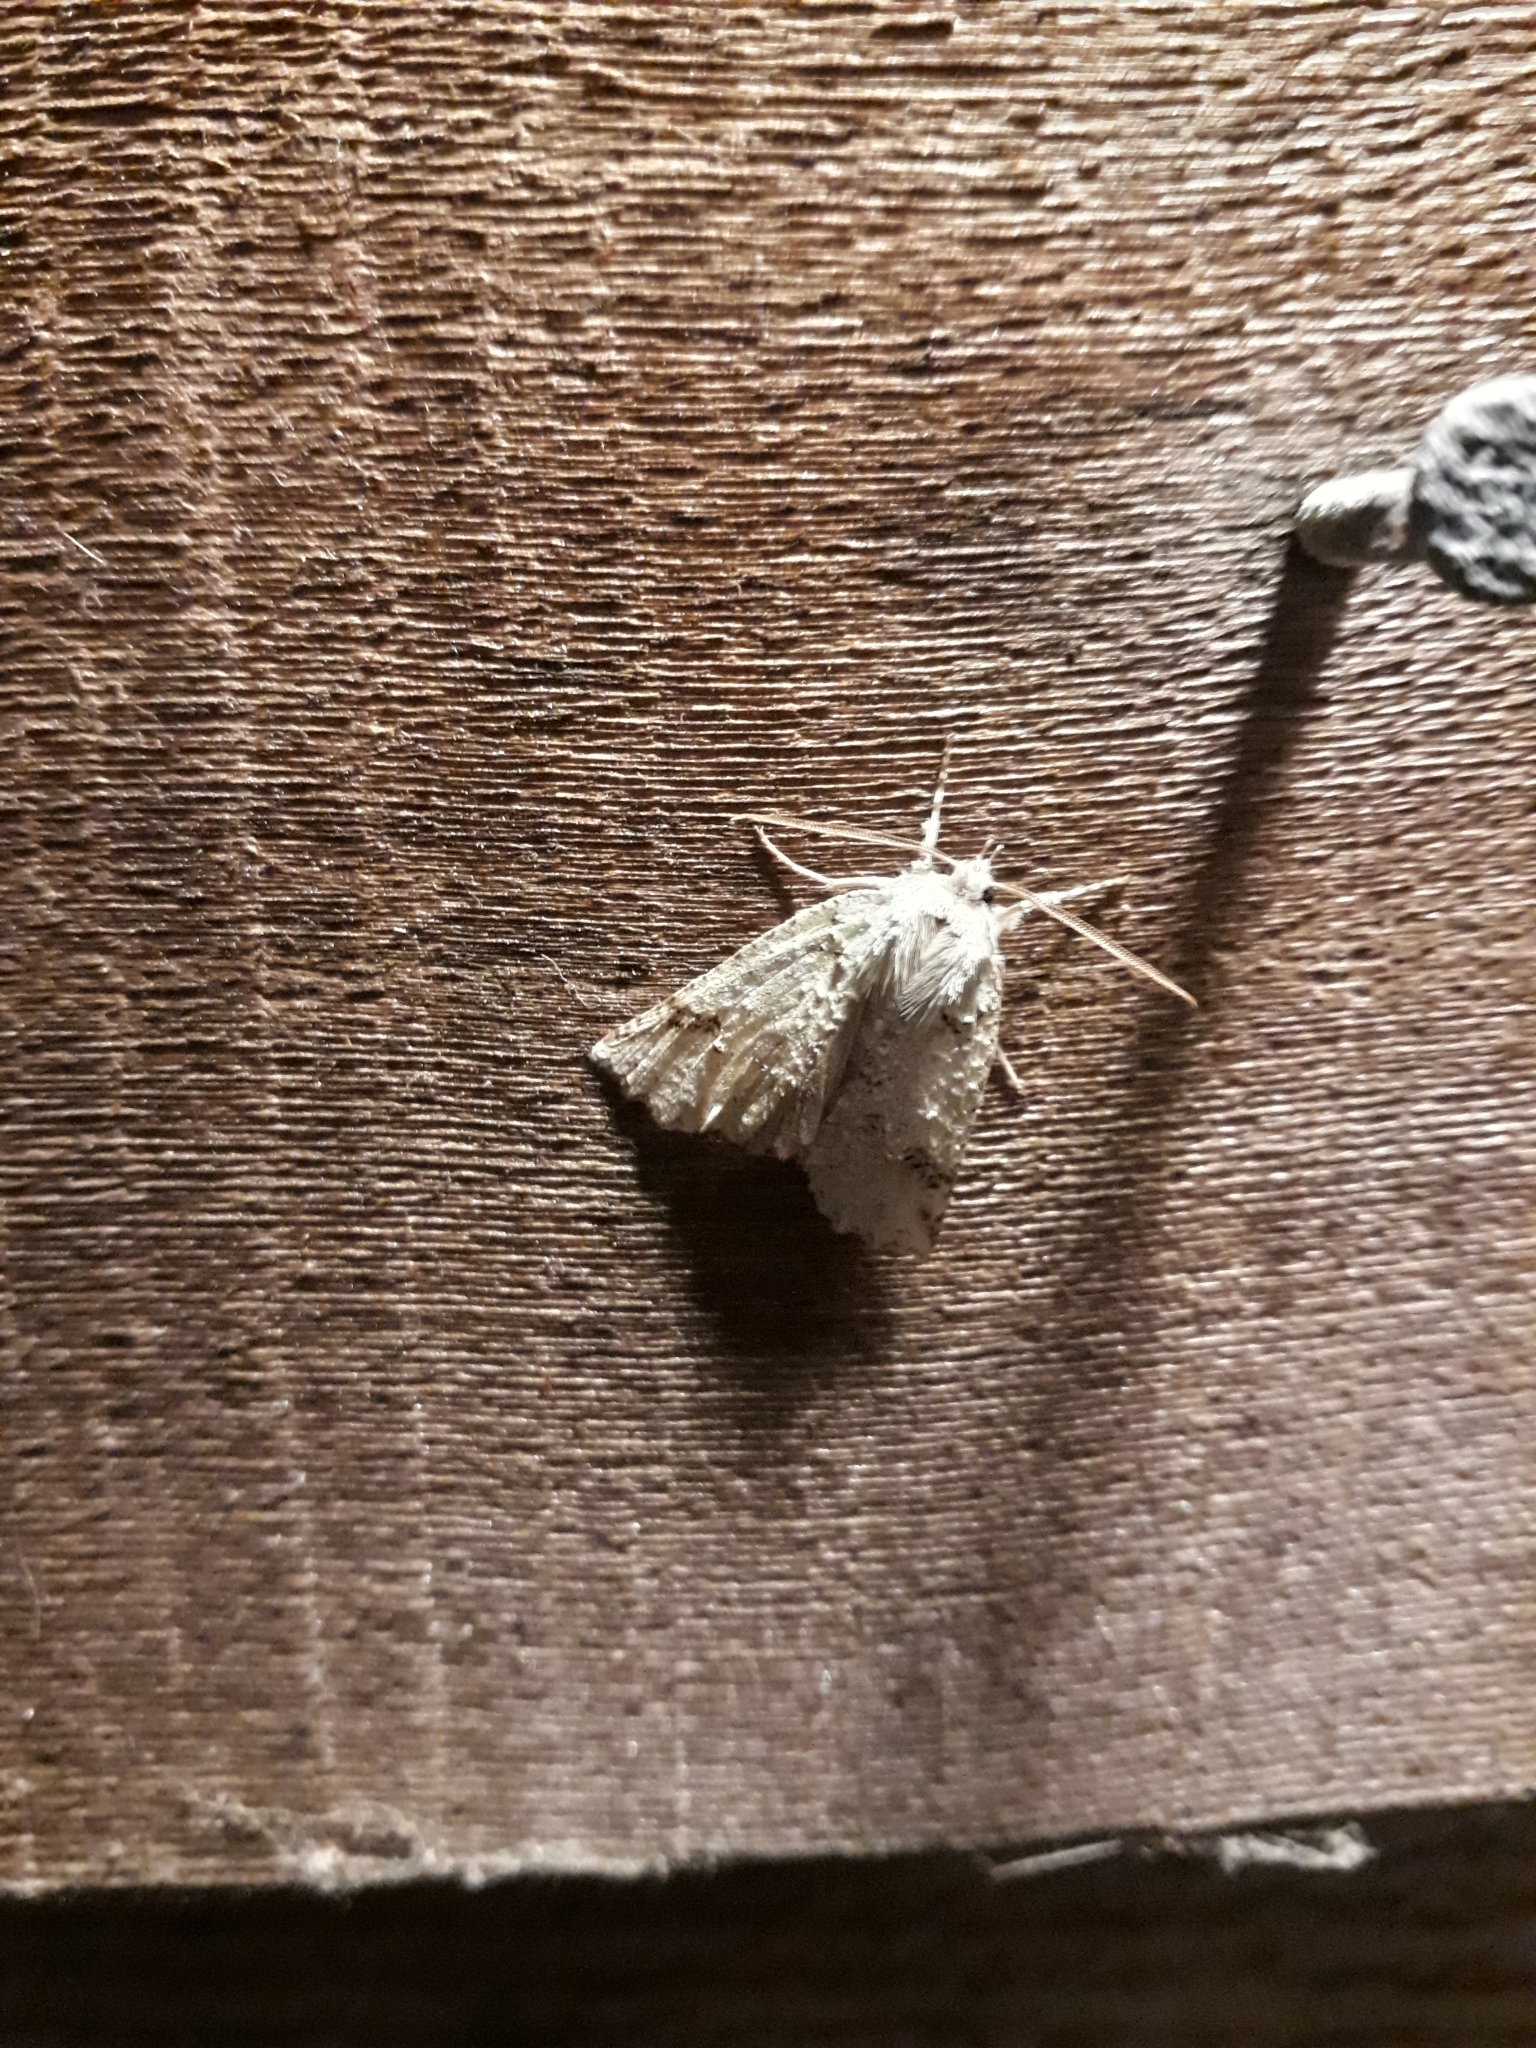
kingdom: Animalia
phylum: Arthropoda
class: Insecta
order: Lepidoptera
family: Geometridae
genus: Declana
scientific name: Declana floccosa
